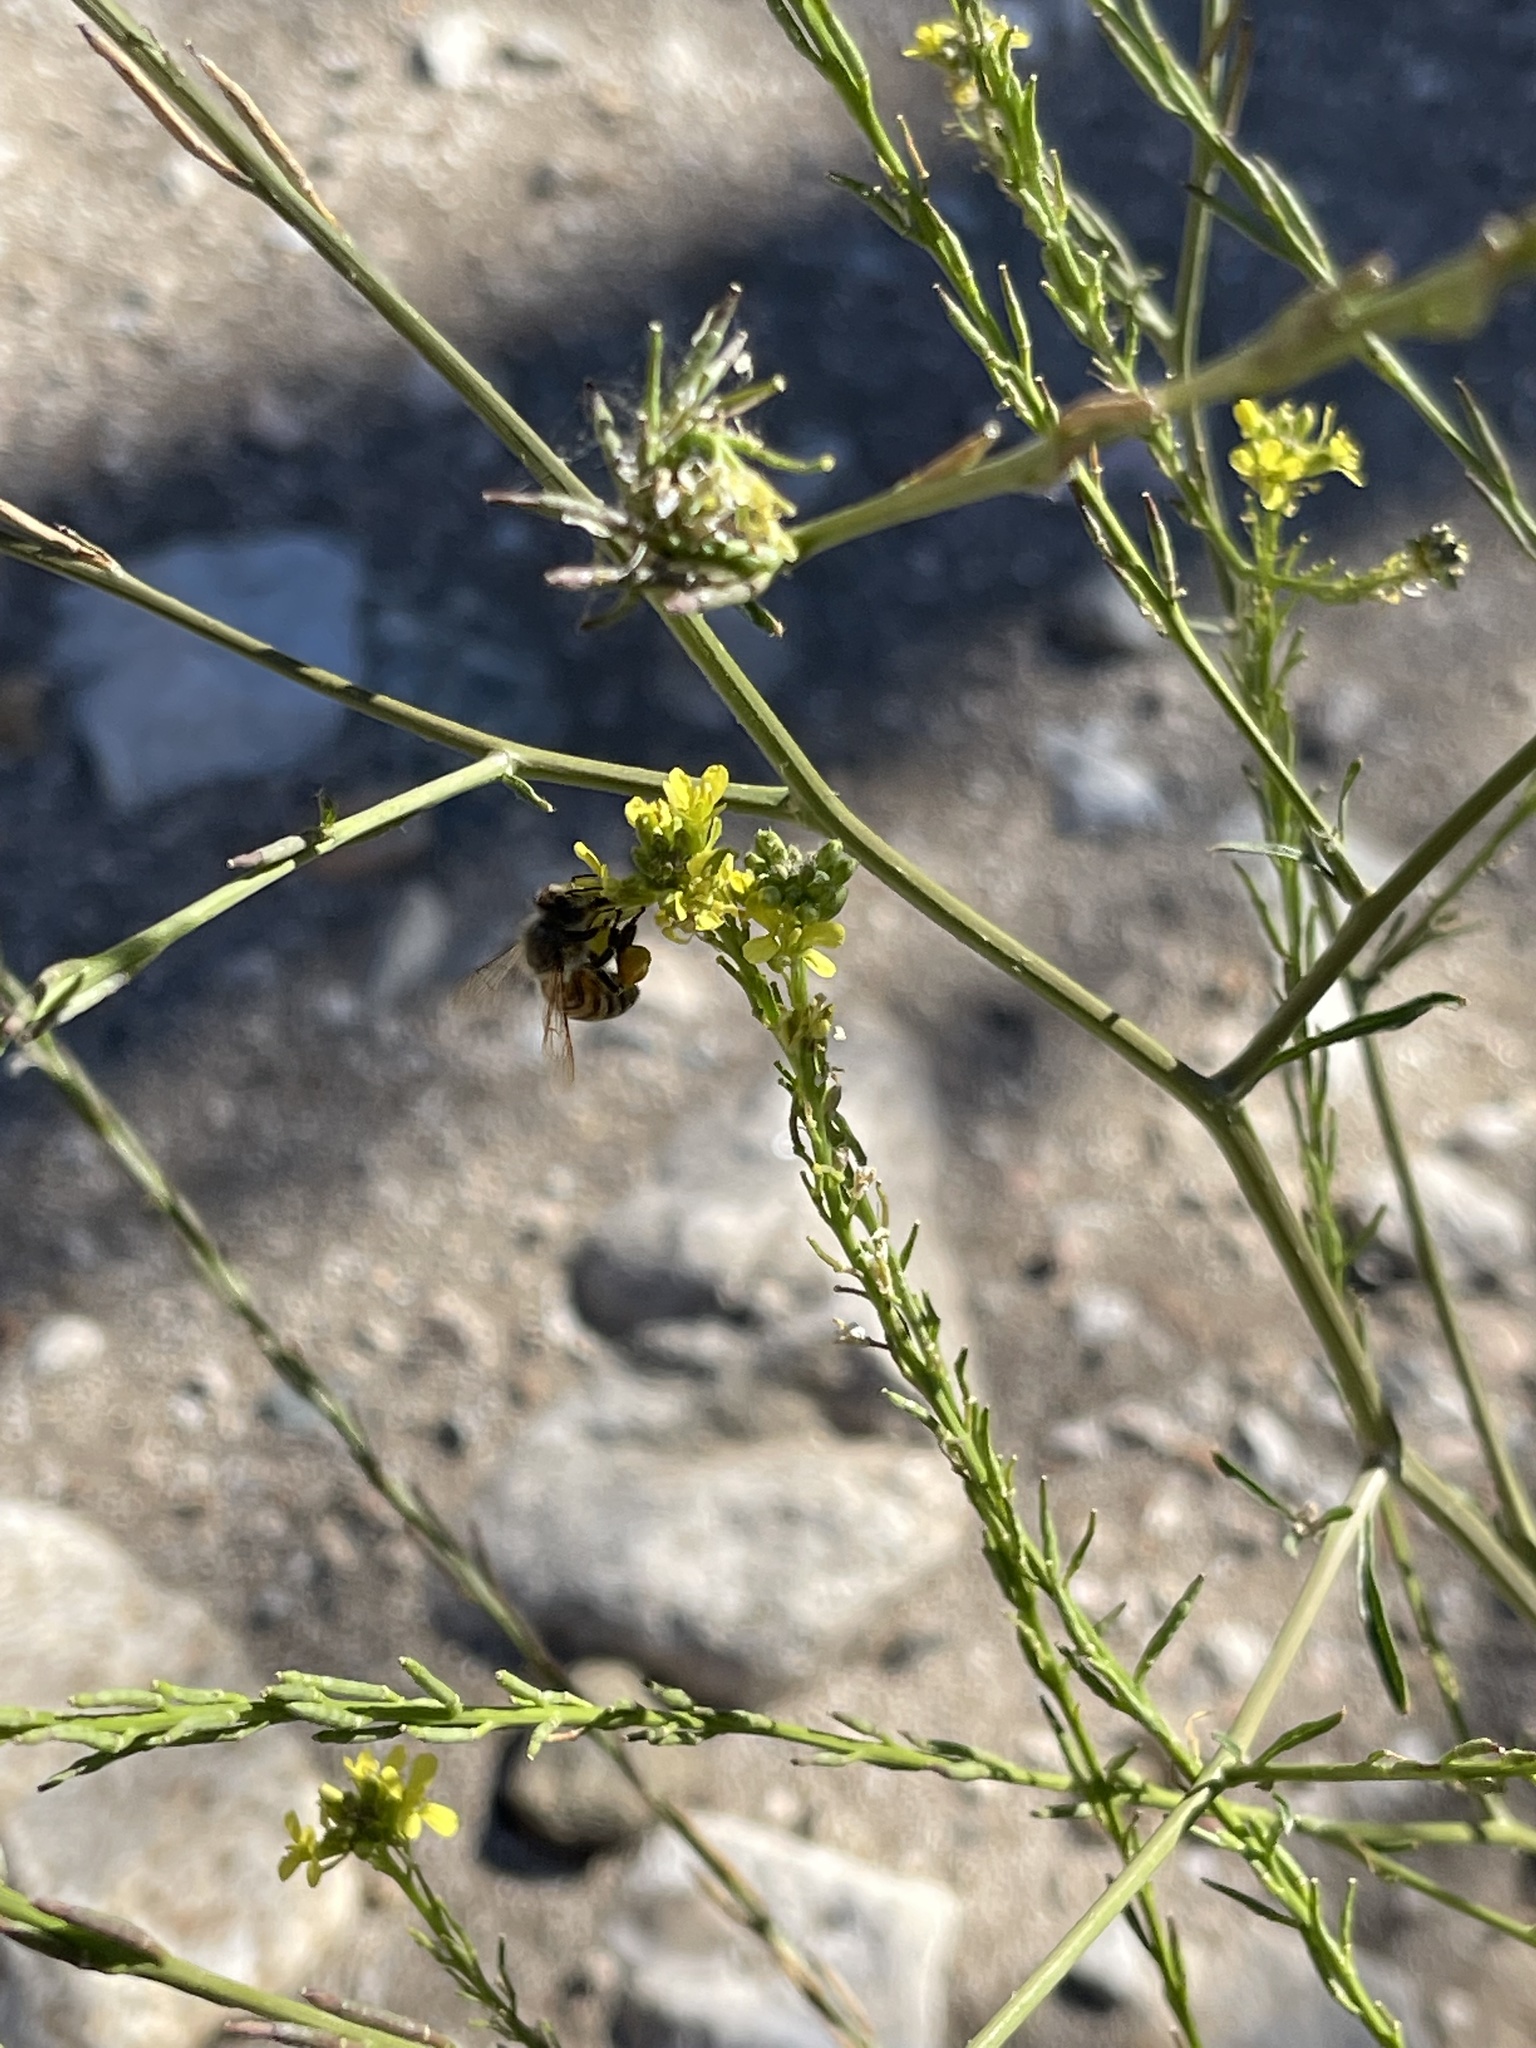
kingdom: Animalia
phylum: Arthropoda
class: Insecta
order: Hymenoptera
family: Apidae
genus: Apis
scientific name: Apis mellifera
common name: Honey bee
